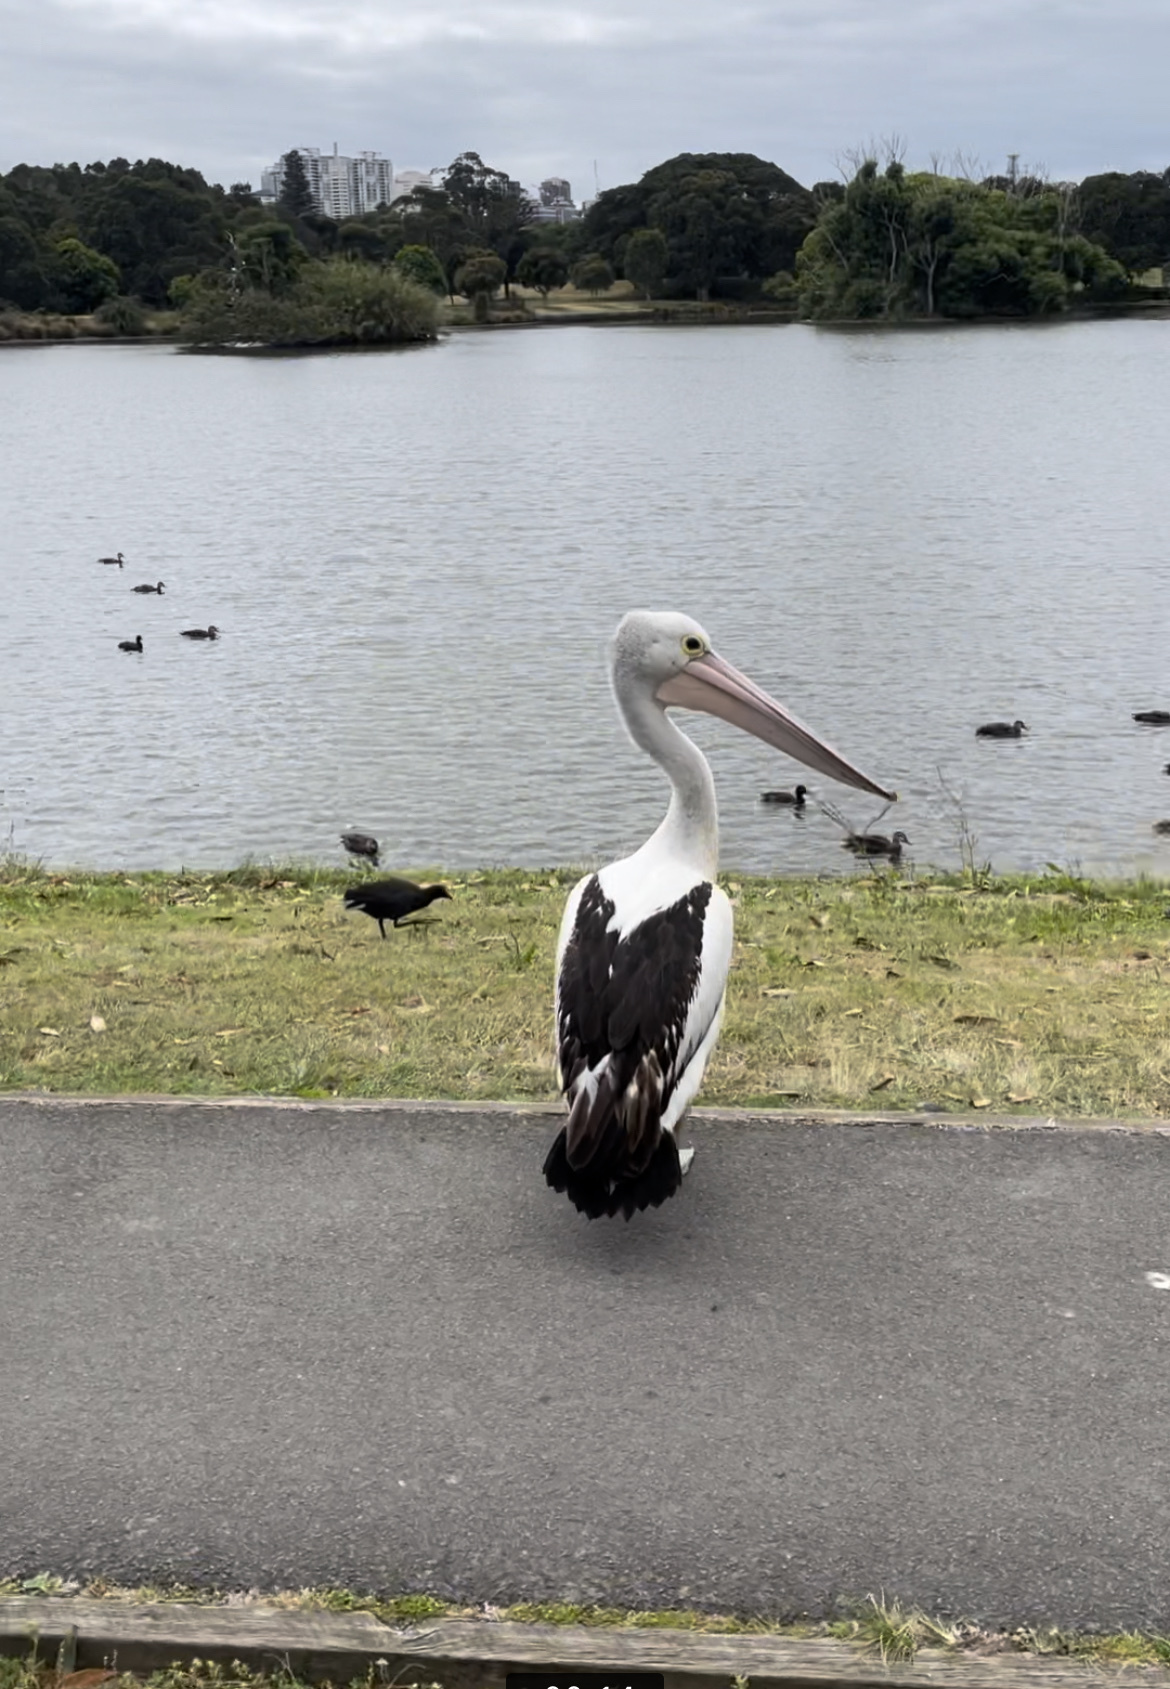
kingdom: Animalia
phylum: Chordata
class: Aves
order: Pelecaniformes
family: Pelecanidae
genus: Pelecanus
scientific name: Pelecanus conspicillatus
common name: Australian pelican
